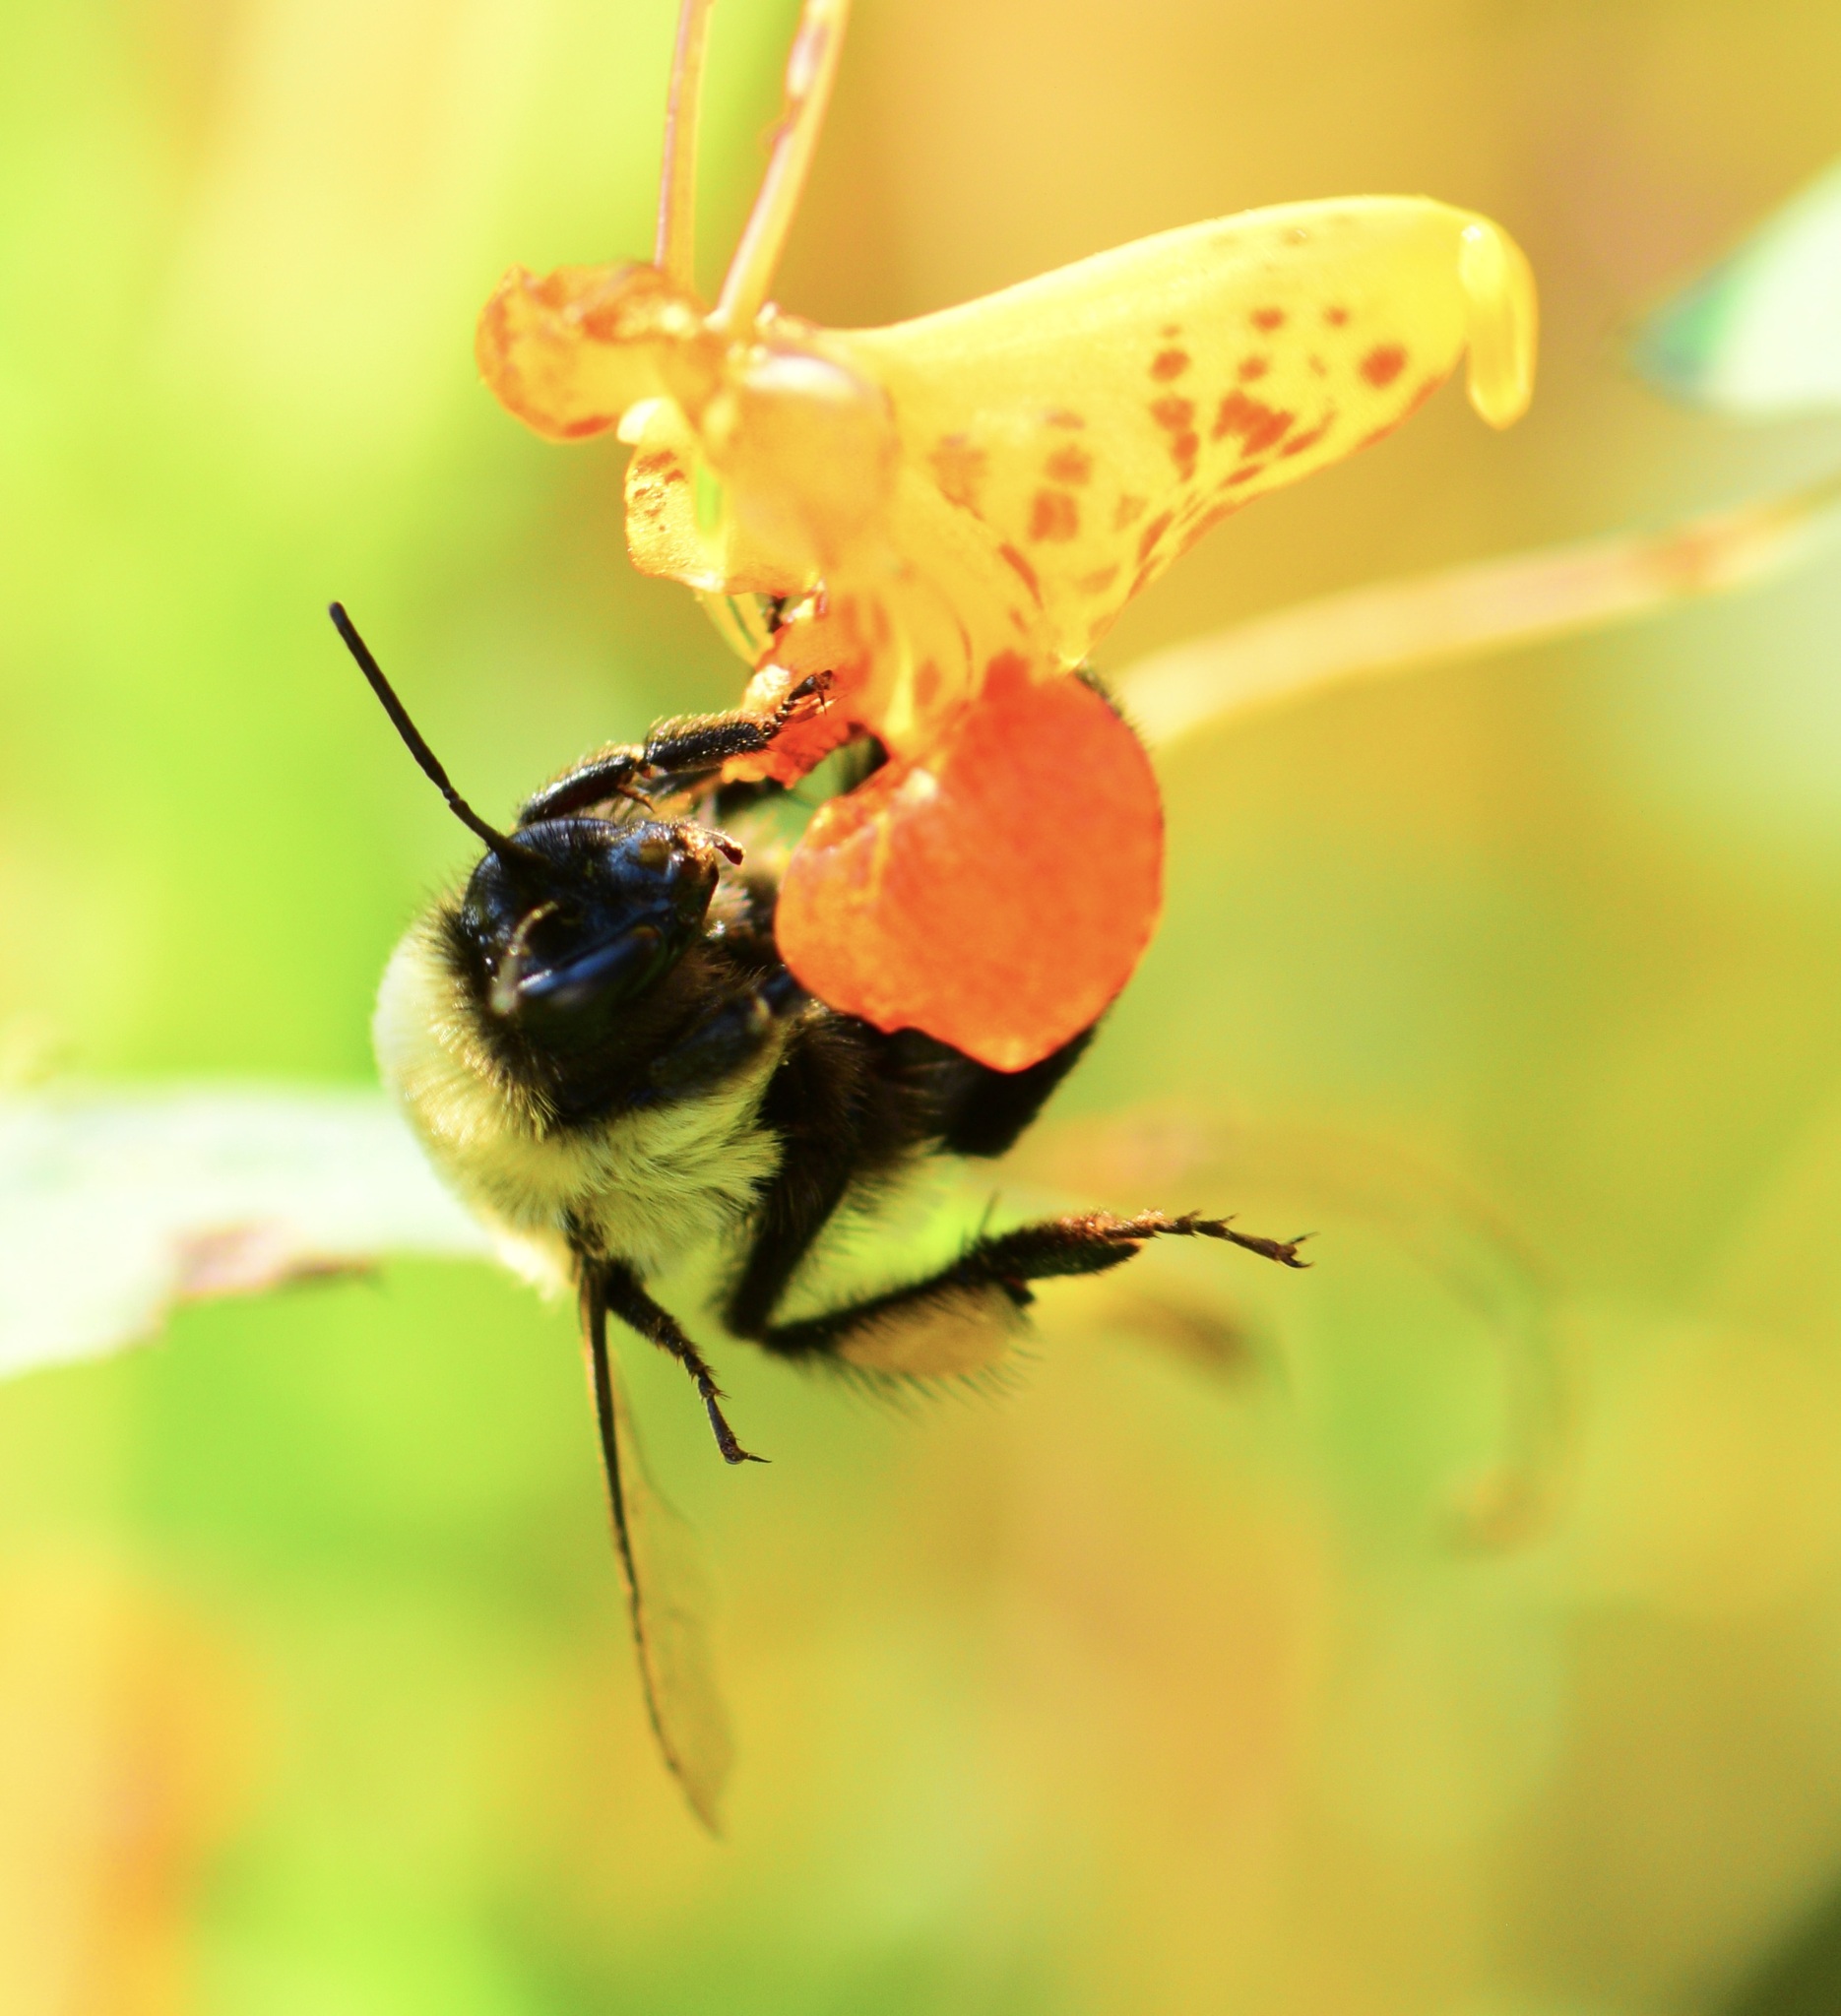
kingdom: Animalia
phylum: Arthropoda
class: Insecta
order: Hymenoptera
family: Apidae
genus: Bombus
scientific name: Bombus impatiens
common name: Common eastern bumble bee
